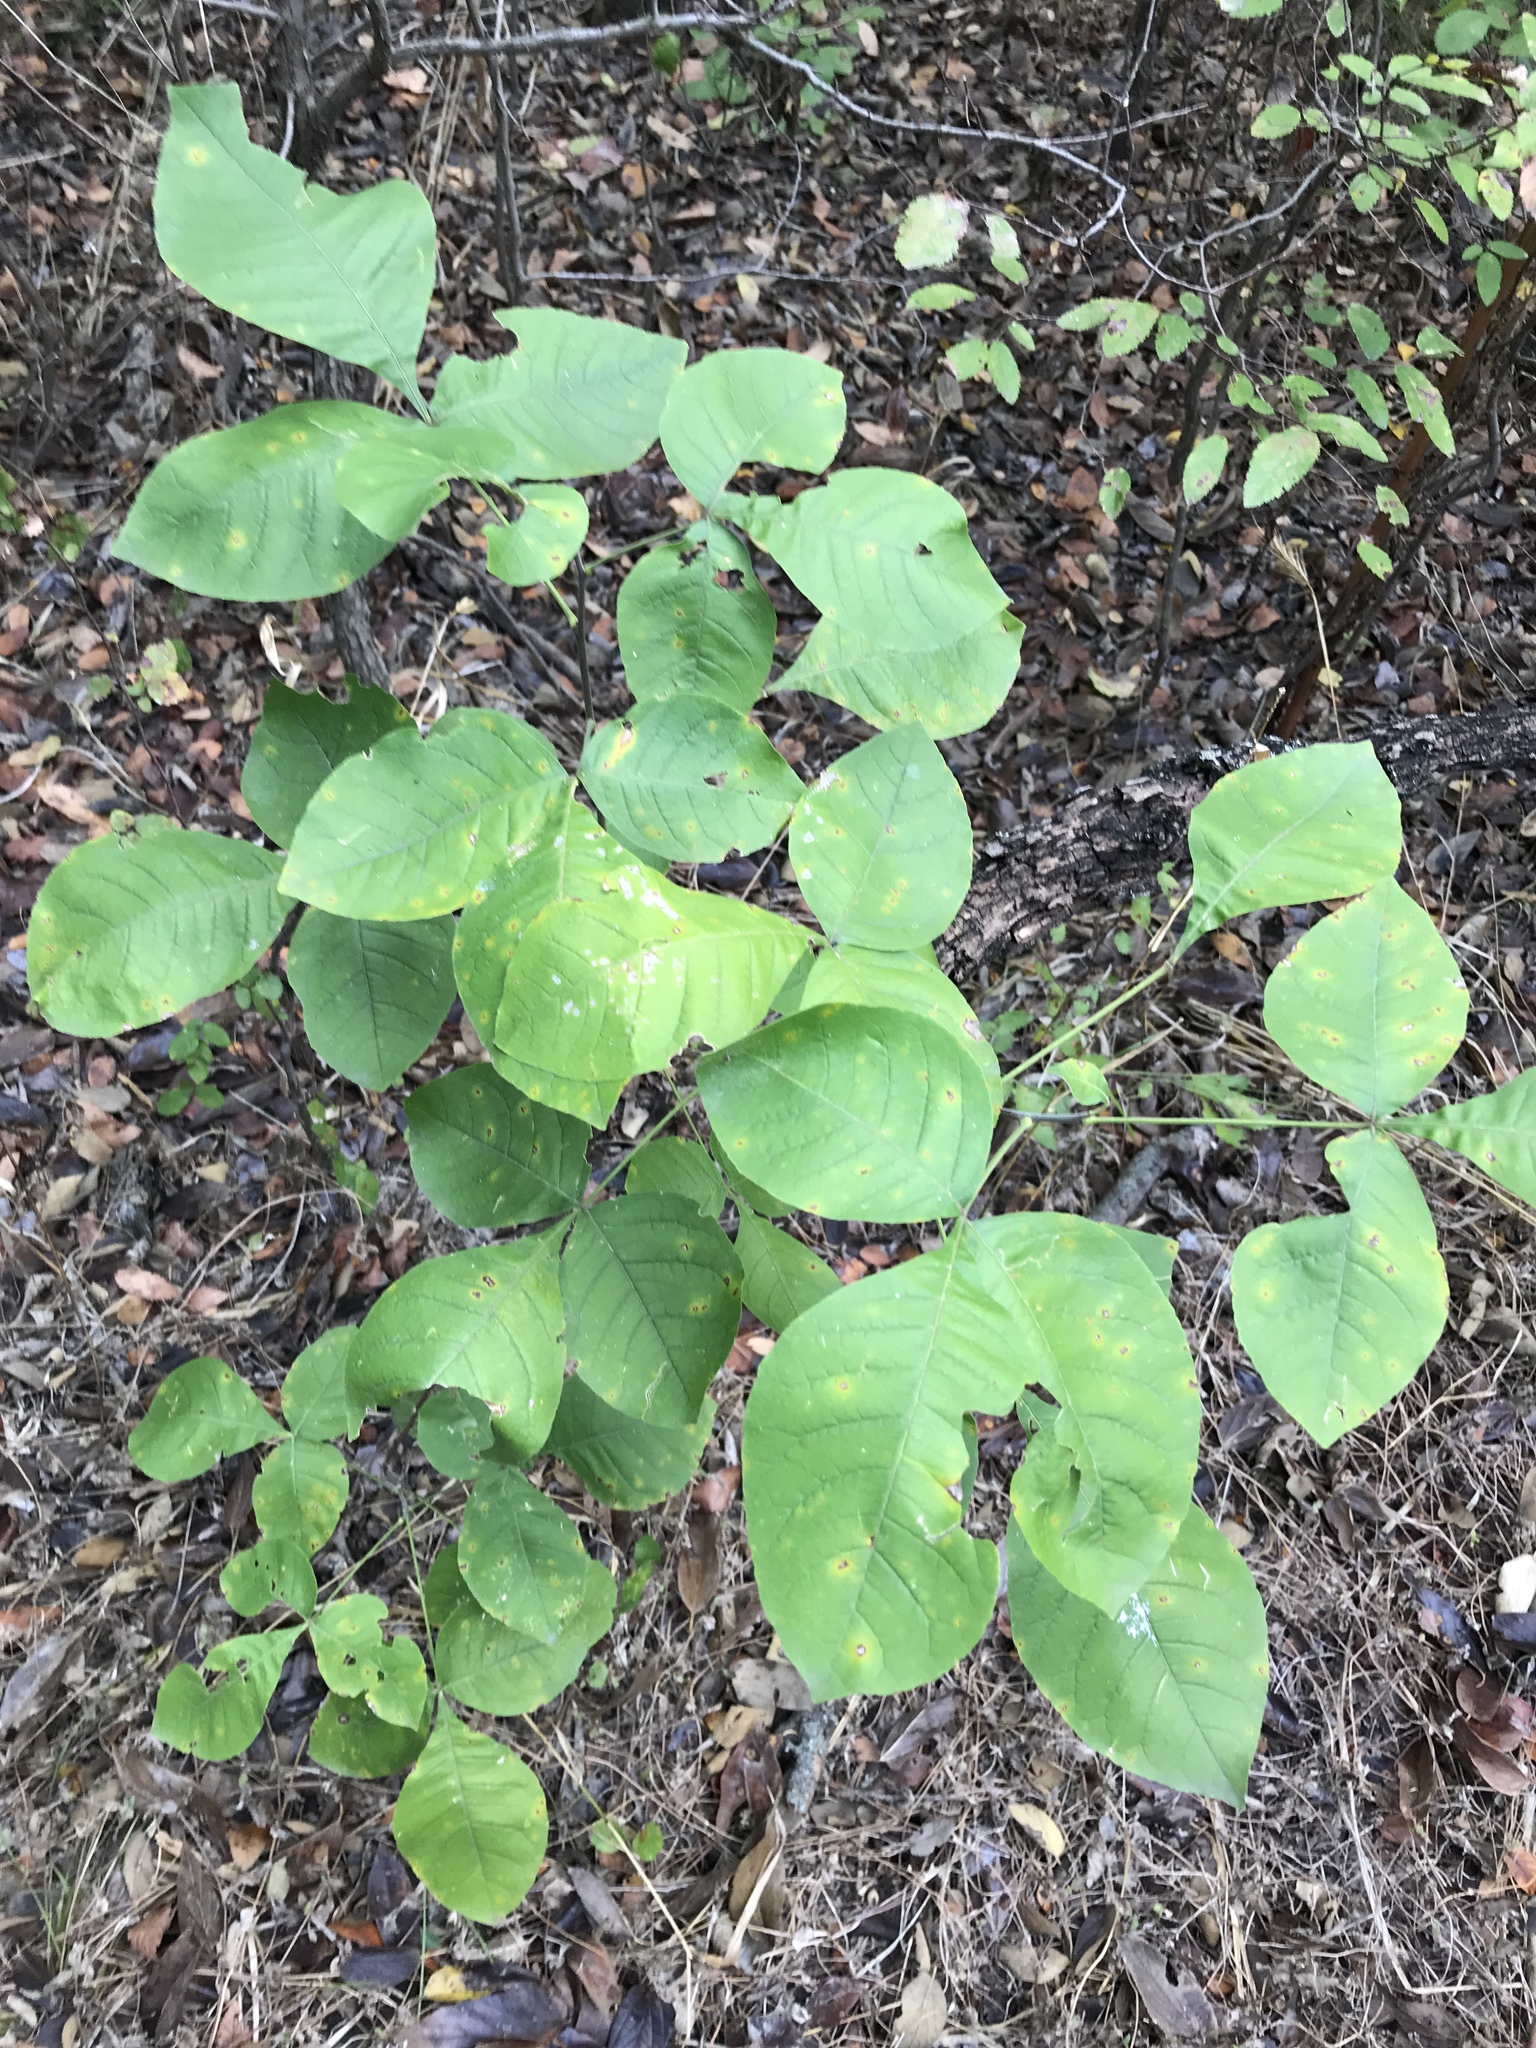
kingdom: Plantae
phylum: Tracheophyta
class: Magnoliopsida
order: Sapindales
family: Rutaceae
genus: Ptelea
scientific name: Ptelea trifoliata
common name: Common hop-tree
